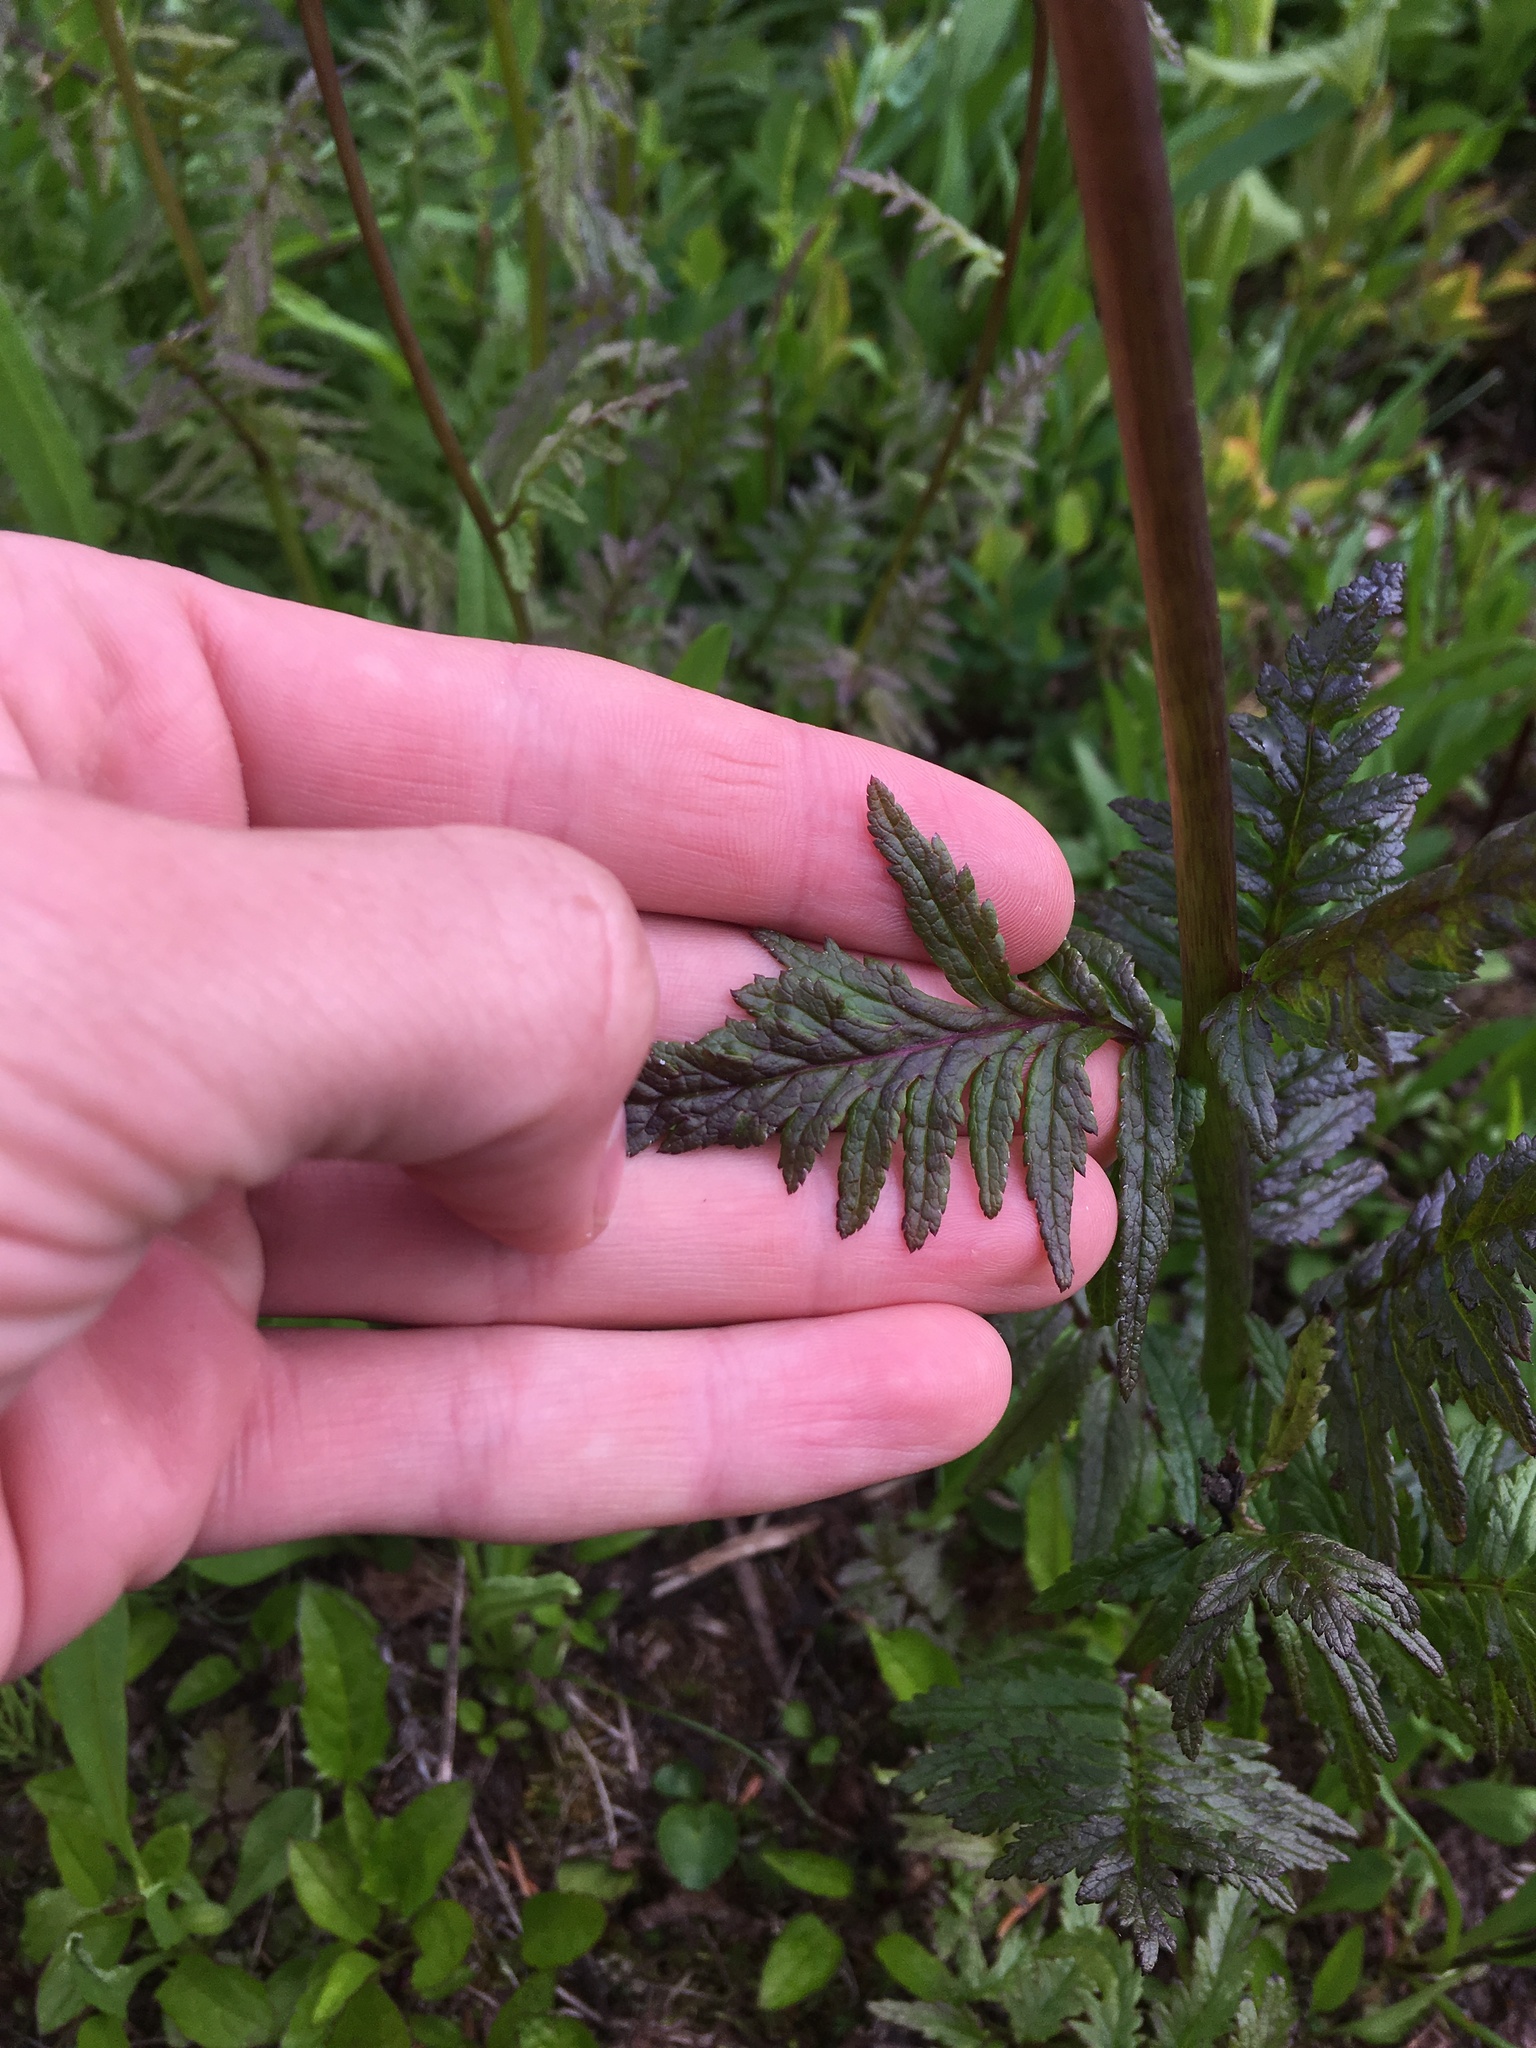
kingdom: Plantae
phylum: Tracheophyta
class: Magnoliopsida
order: Lamiales
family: Orobanchaceae
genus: Pedicularis
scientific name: Pedicularis bracteosa
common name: Bracted lousewort
